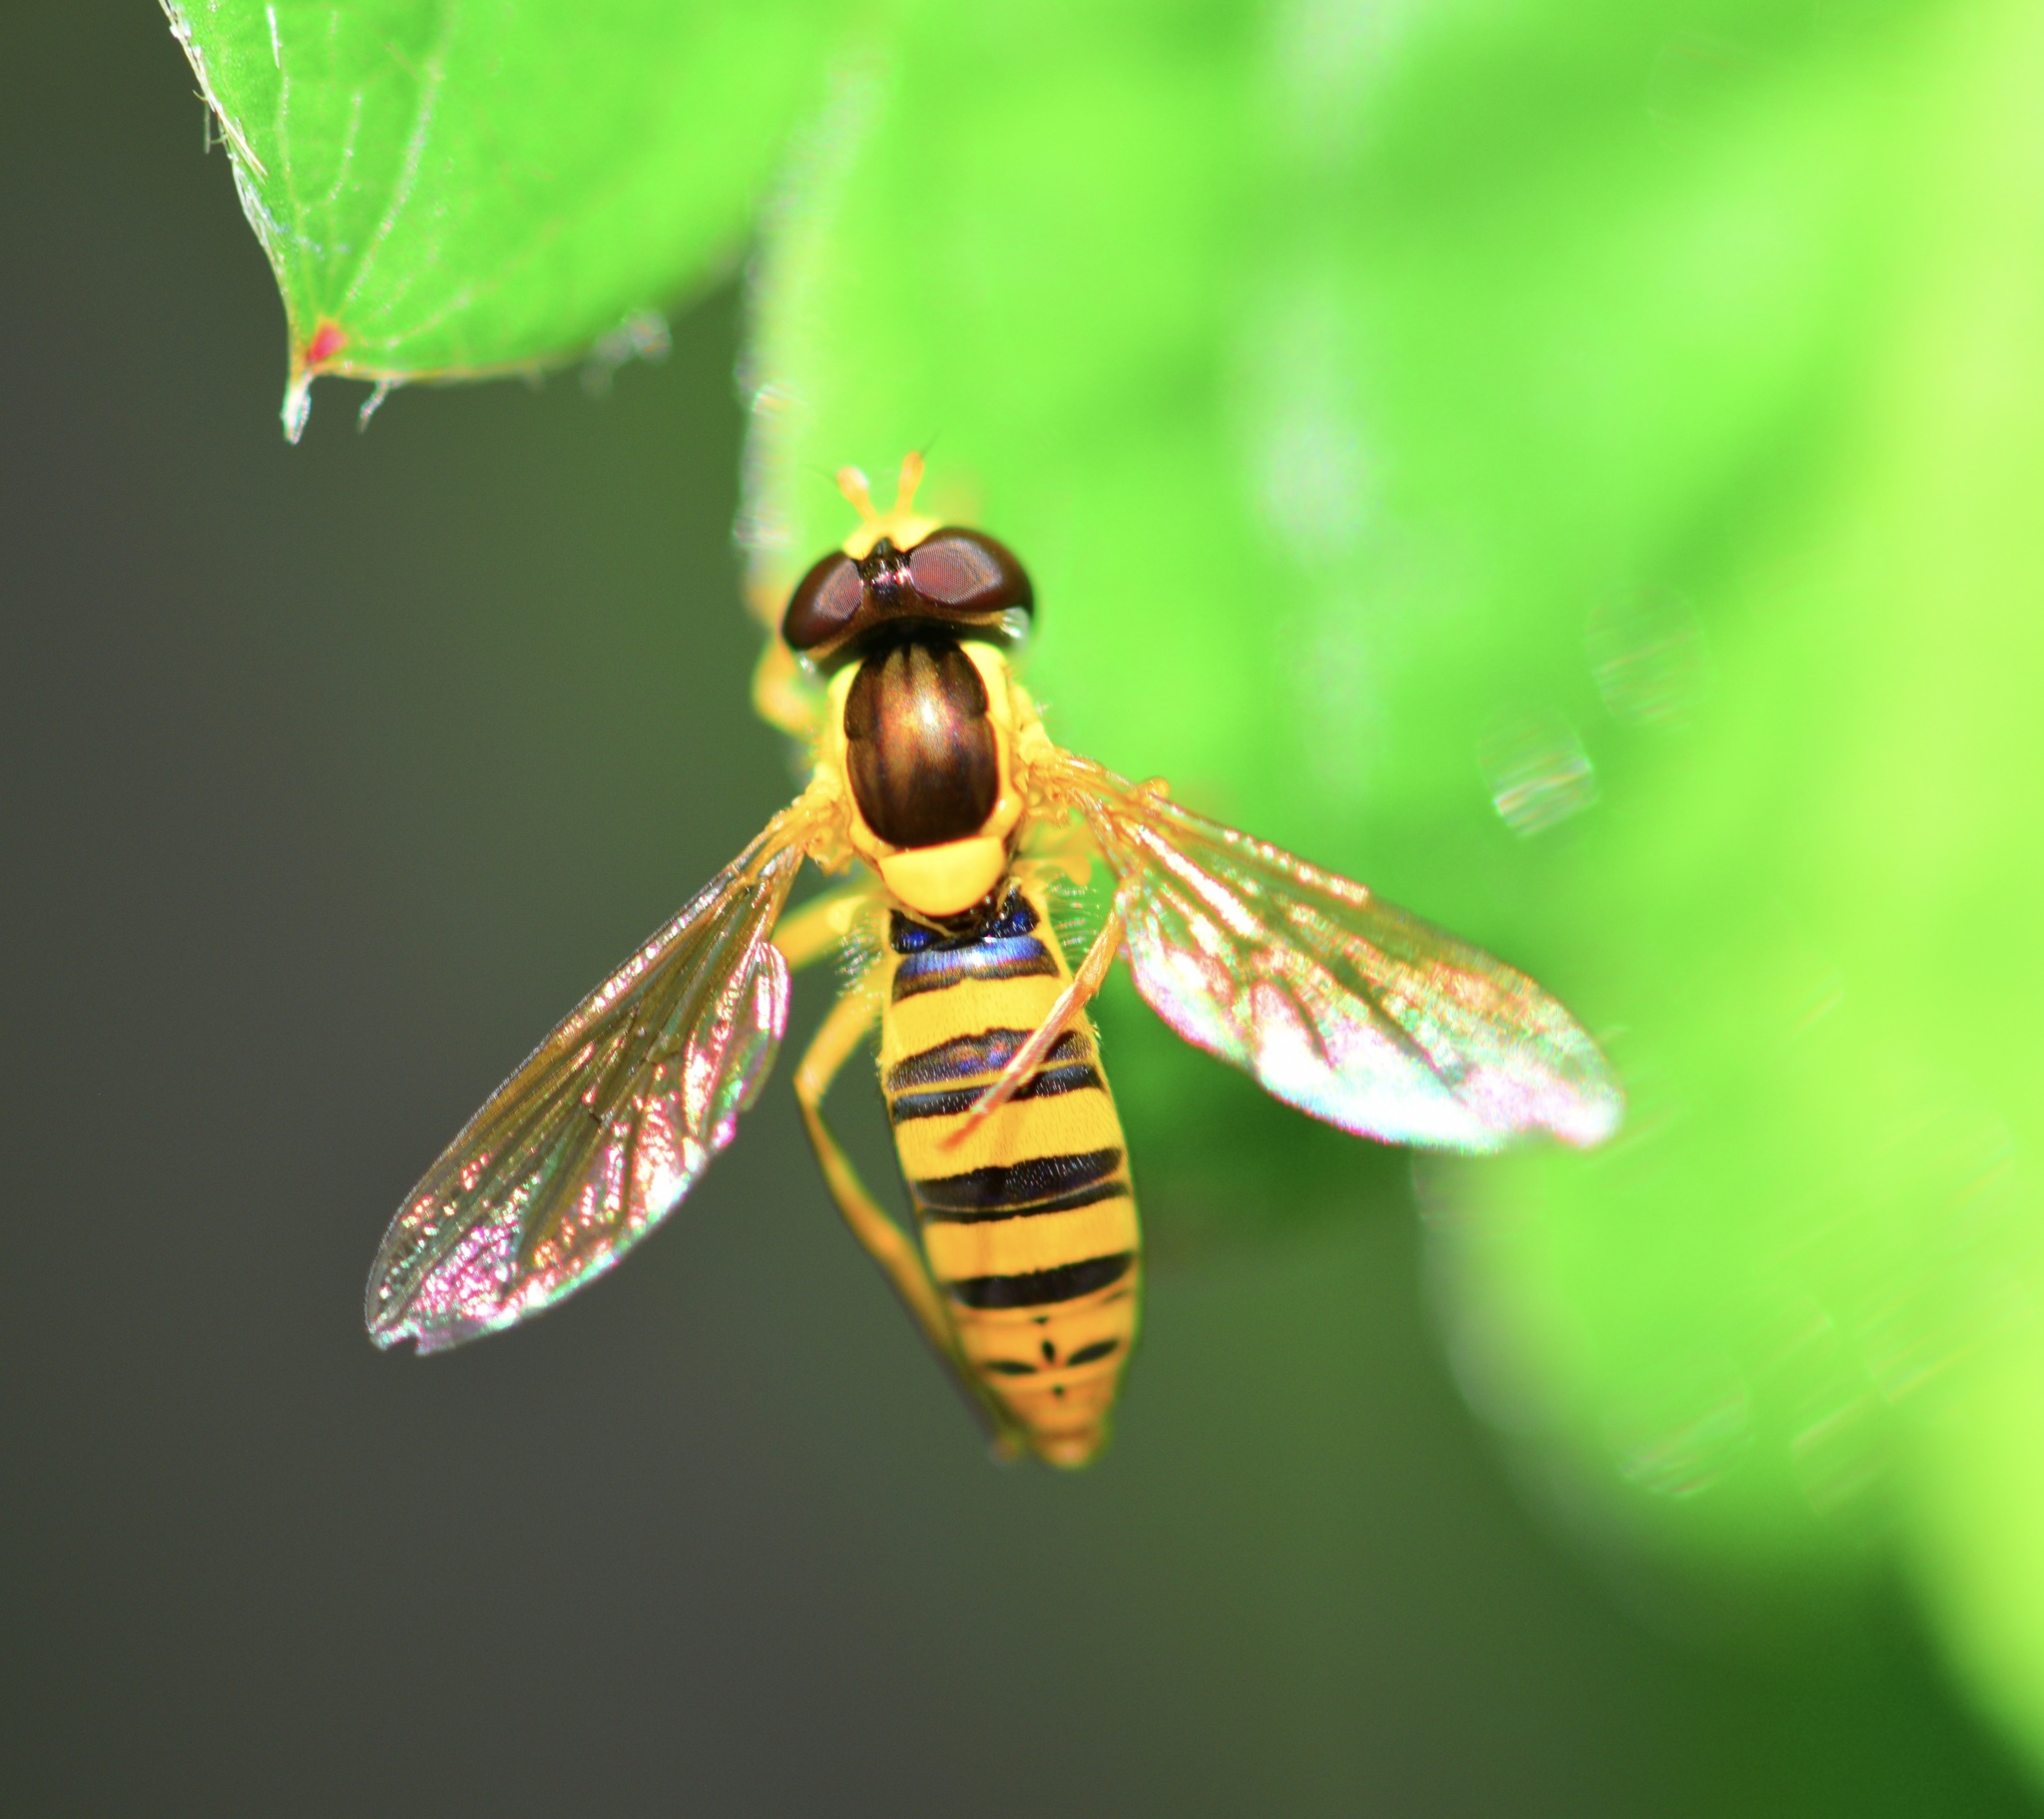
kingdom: Animalia
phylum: Arthropoda
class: Insecta
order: Diptera
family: Syrphidae
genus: Sphaerophoria
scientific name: Sphaerophoria
